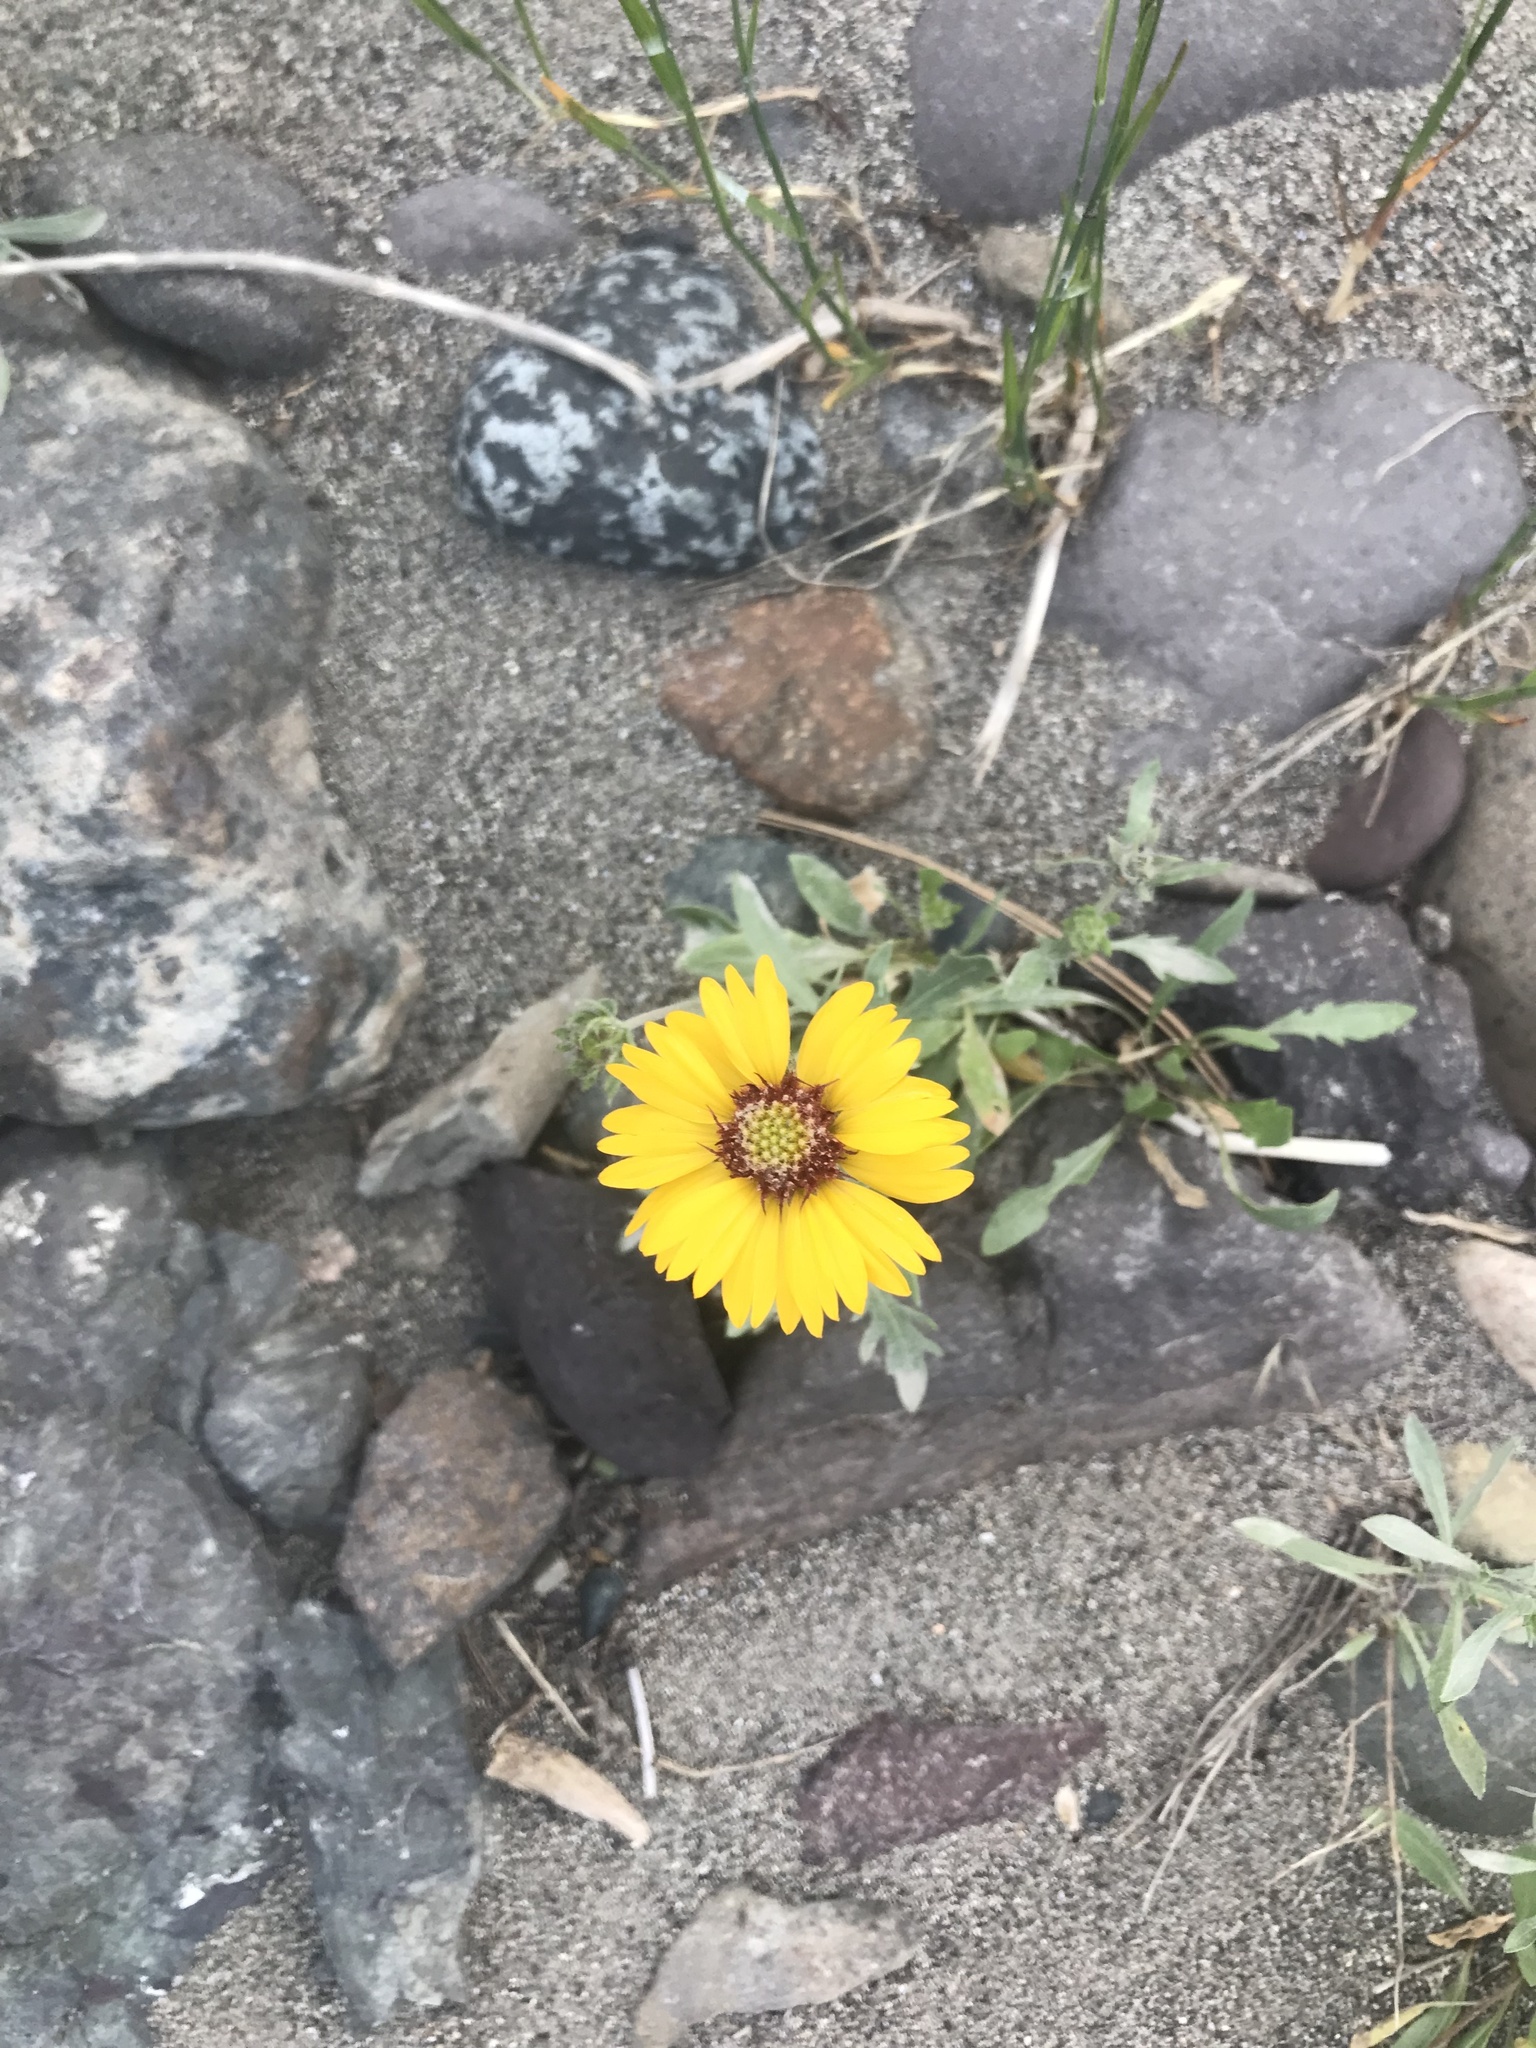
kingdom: Plantae
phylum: Tracheophyta
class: Magnoliopsida
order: Asterales
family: Asteraceae
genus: Gaillardia
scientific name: Gaillardia aristata
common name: Blanket-flower
